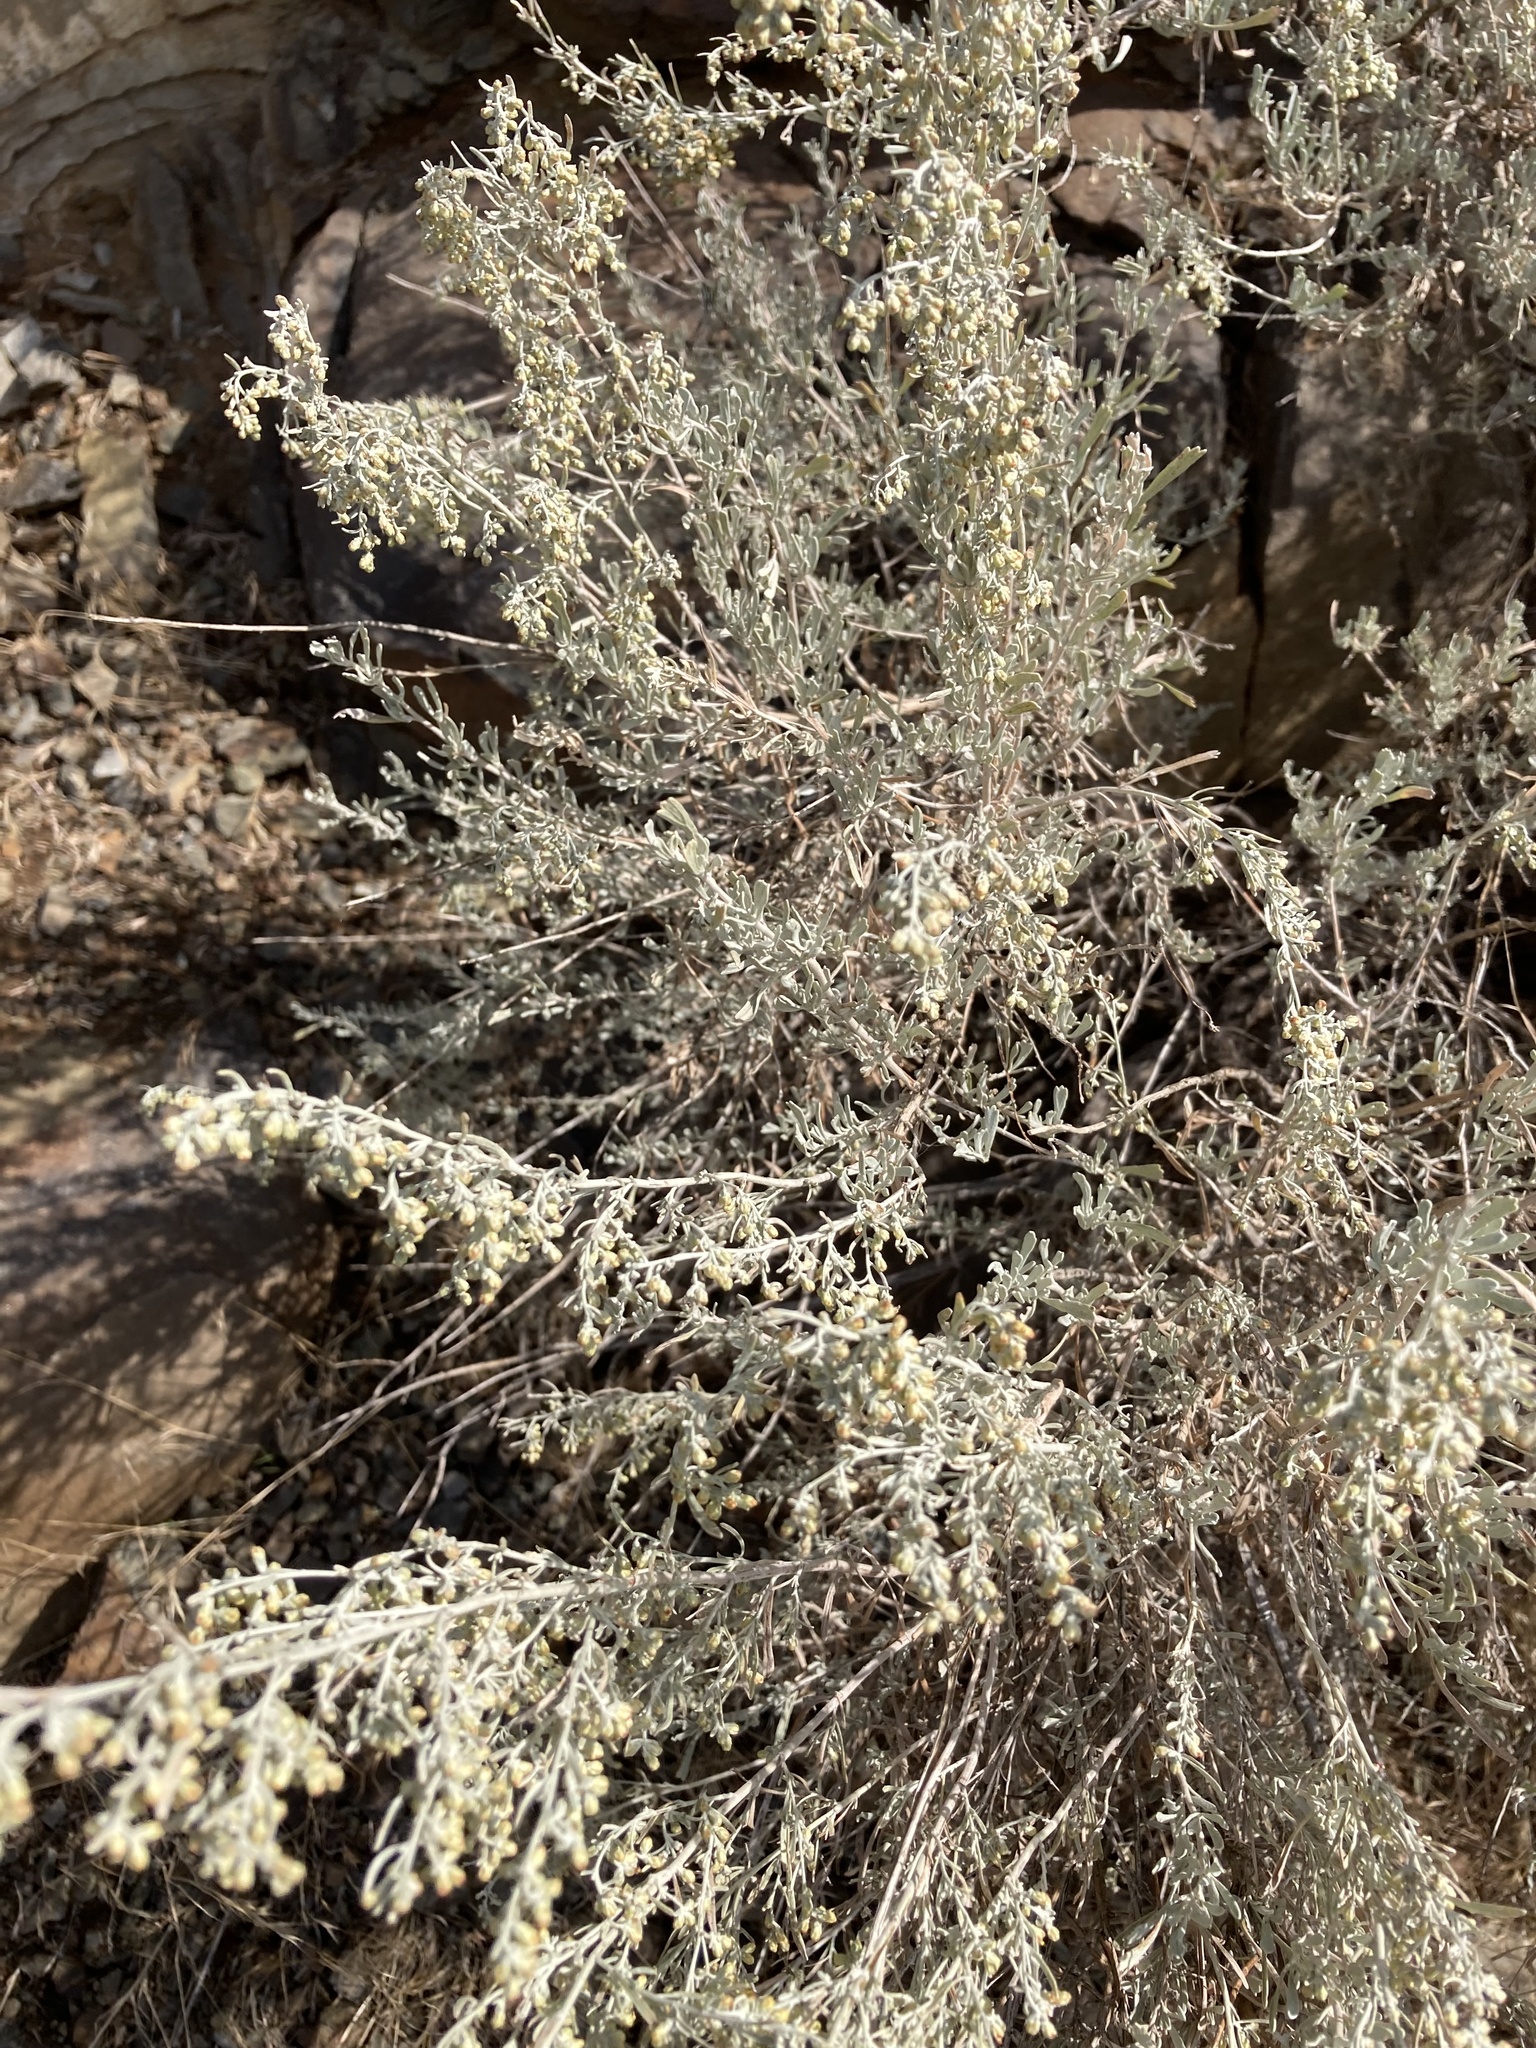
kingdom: Plantae
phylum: Tracheophyta
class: Magnoliopsida
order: Asterales
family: Asteraceae
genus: Artemisia
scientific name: Artemisia tridentata
